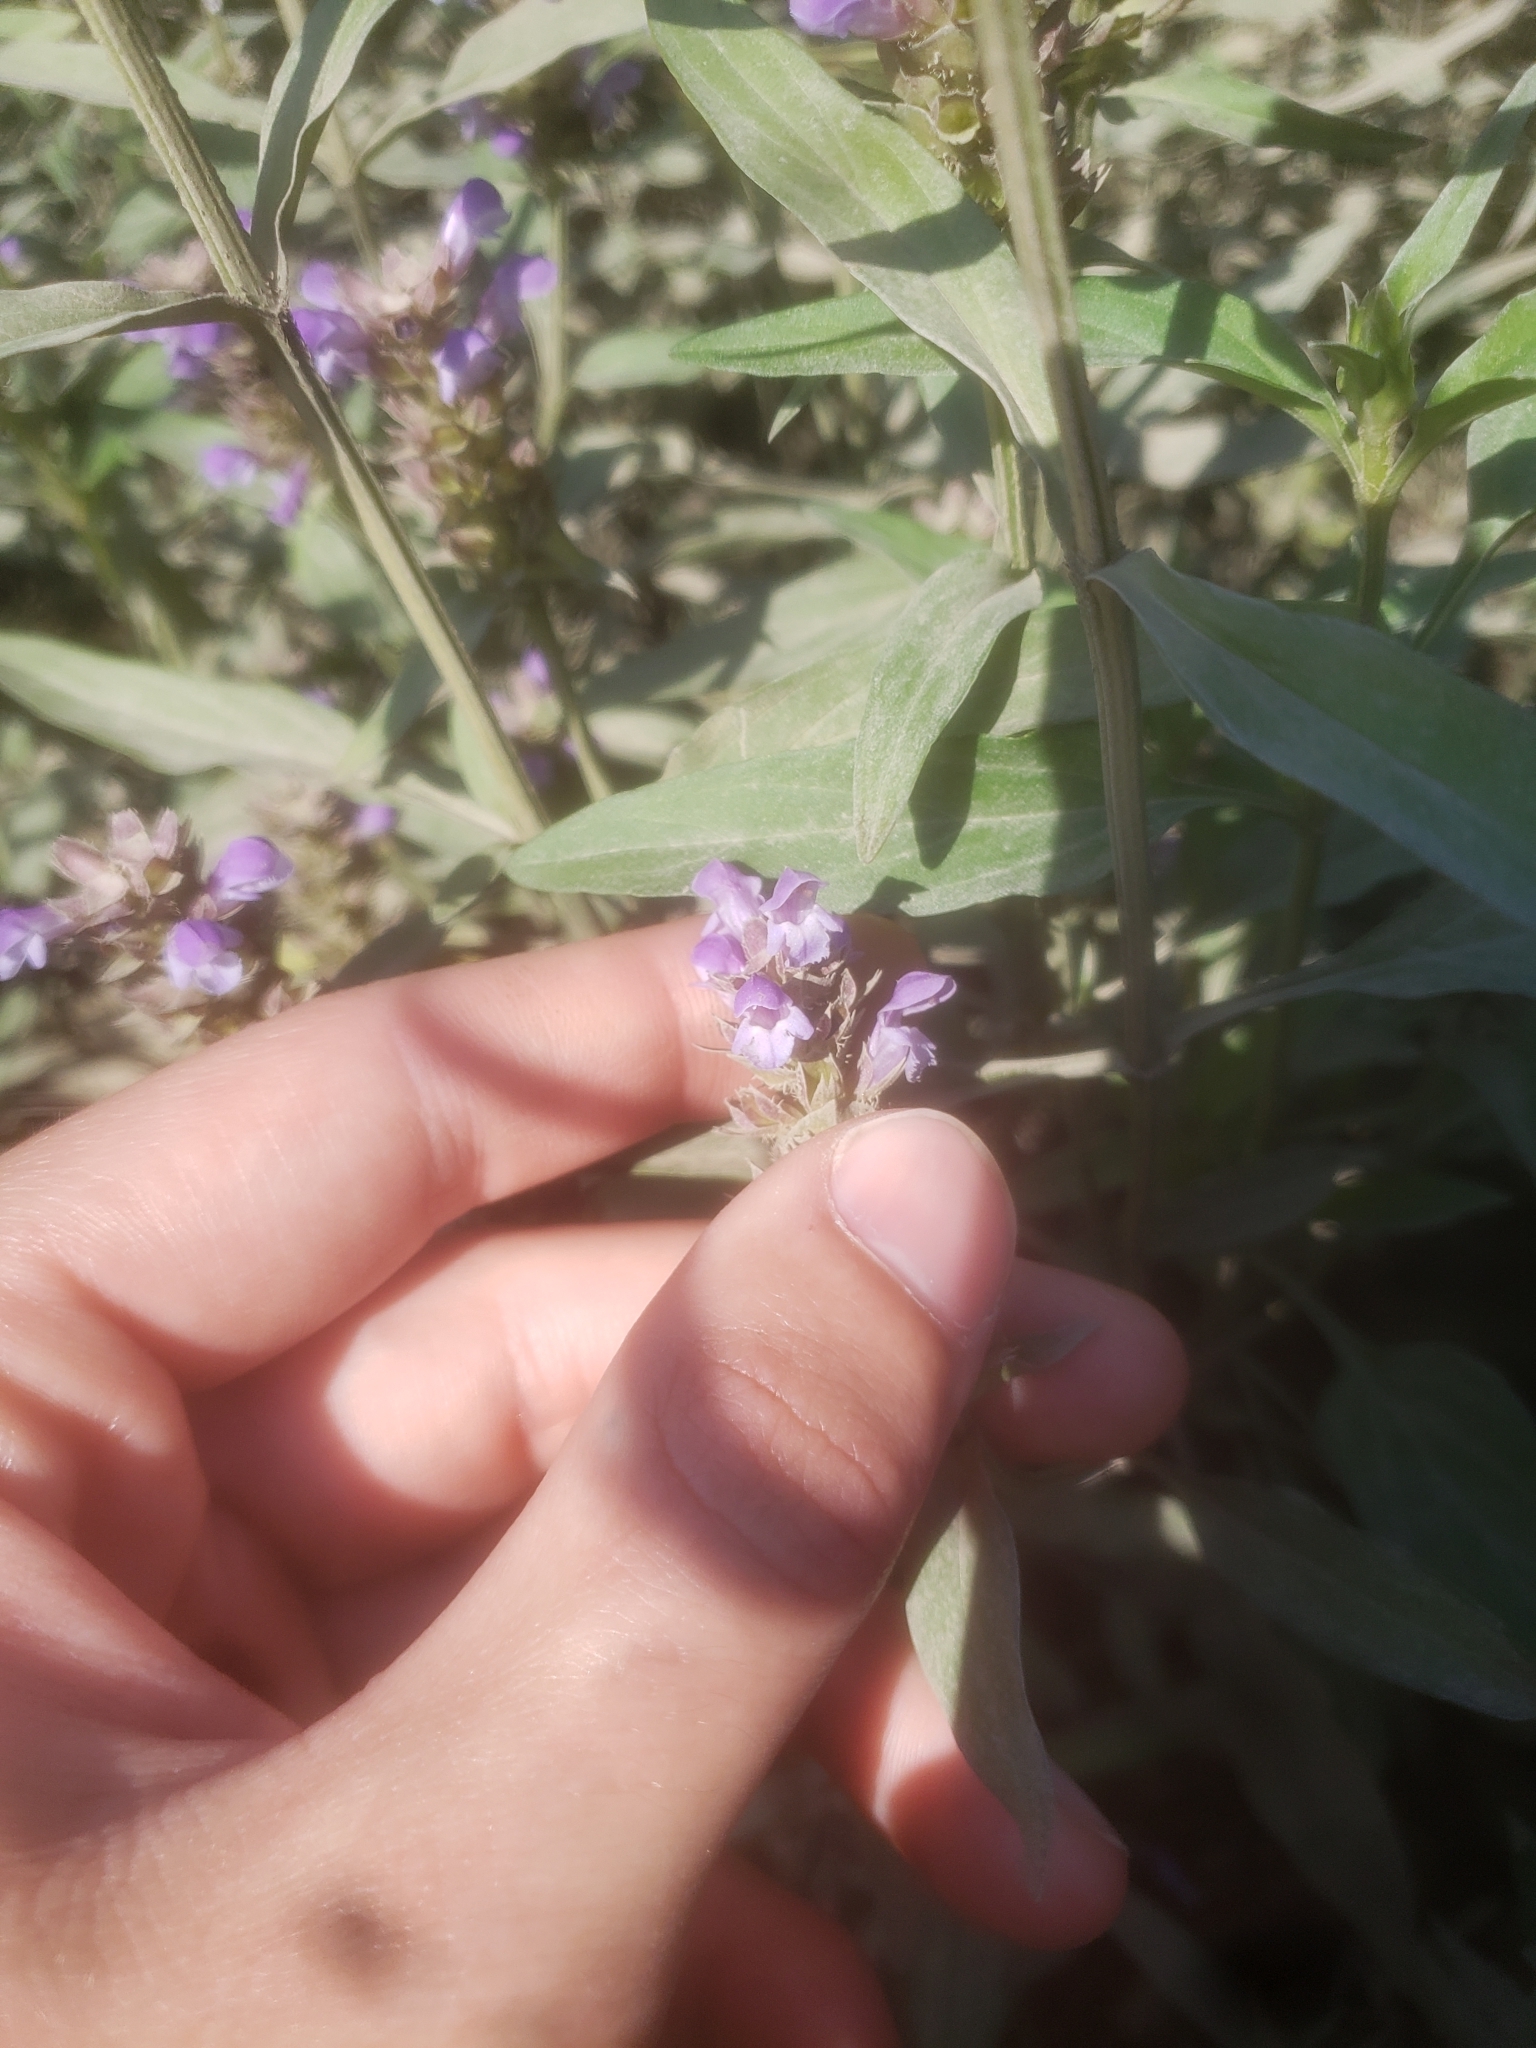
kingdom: Plantae
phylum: Tracheophyta
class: Magnoliopsida
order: Lamiales
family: Lamiaceae
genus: Prunella
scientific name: Prunella vulgaris
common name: Heal-all
